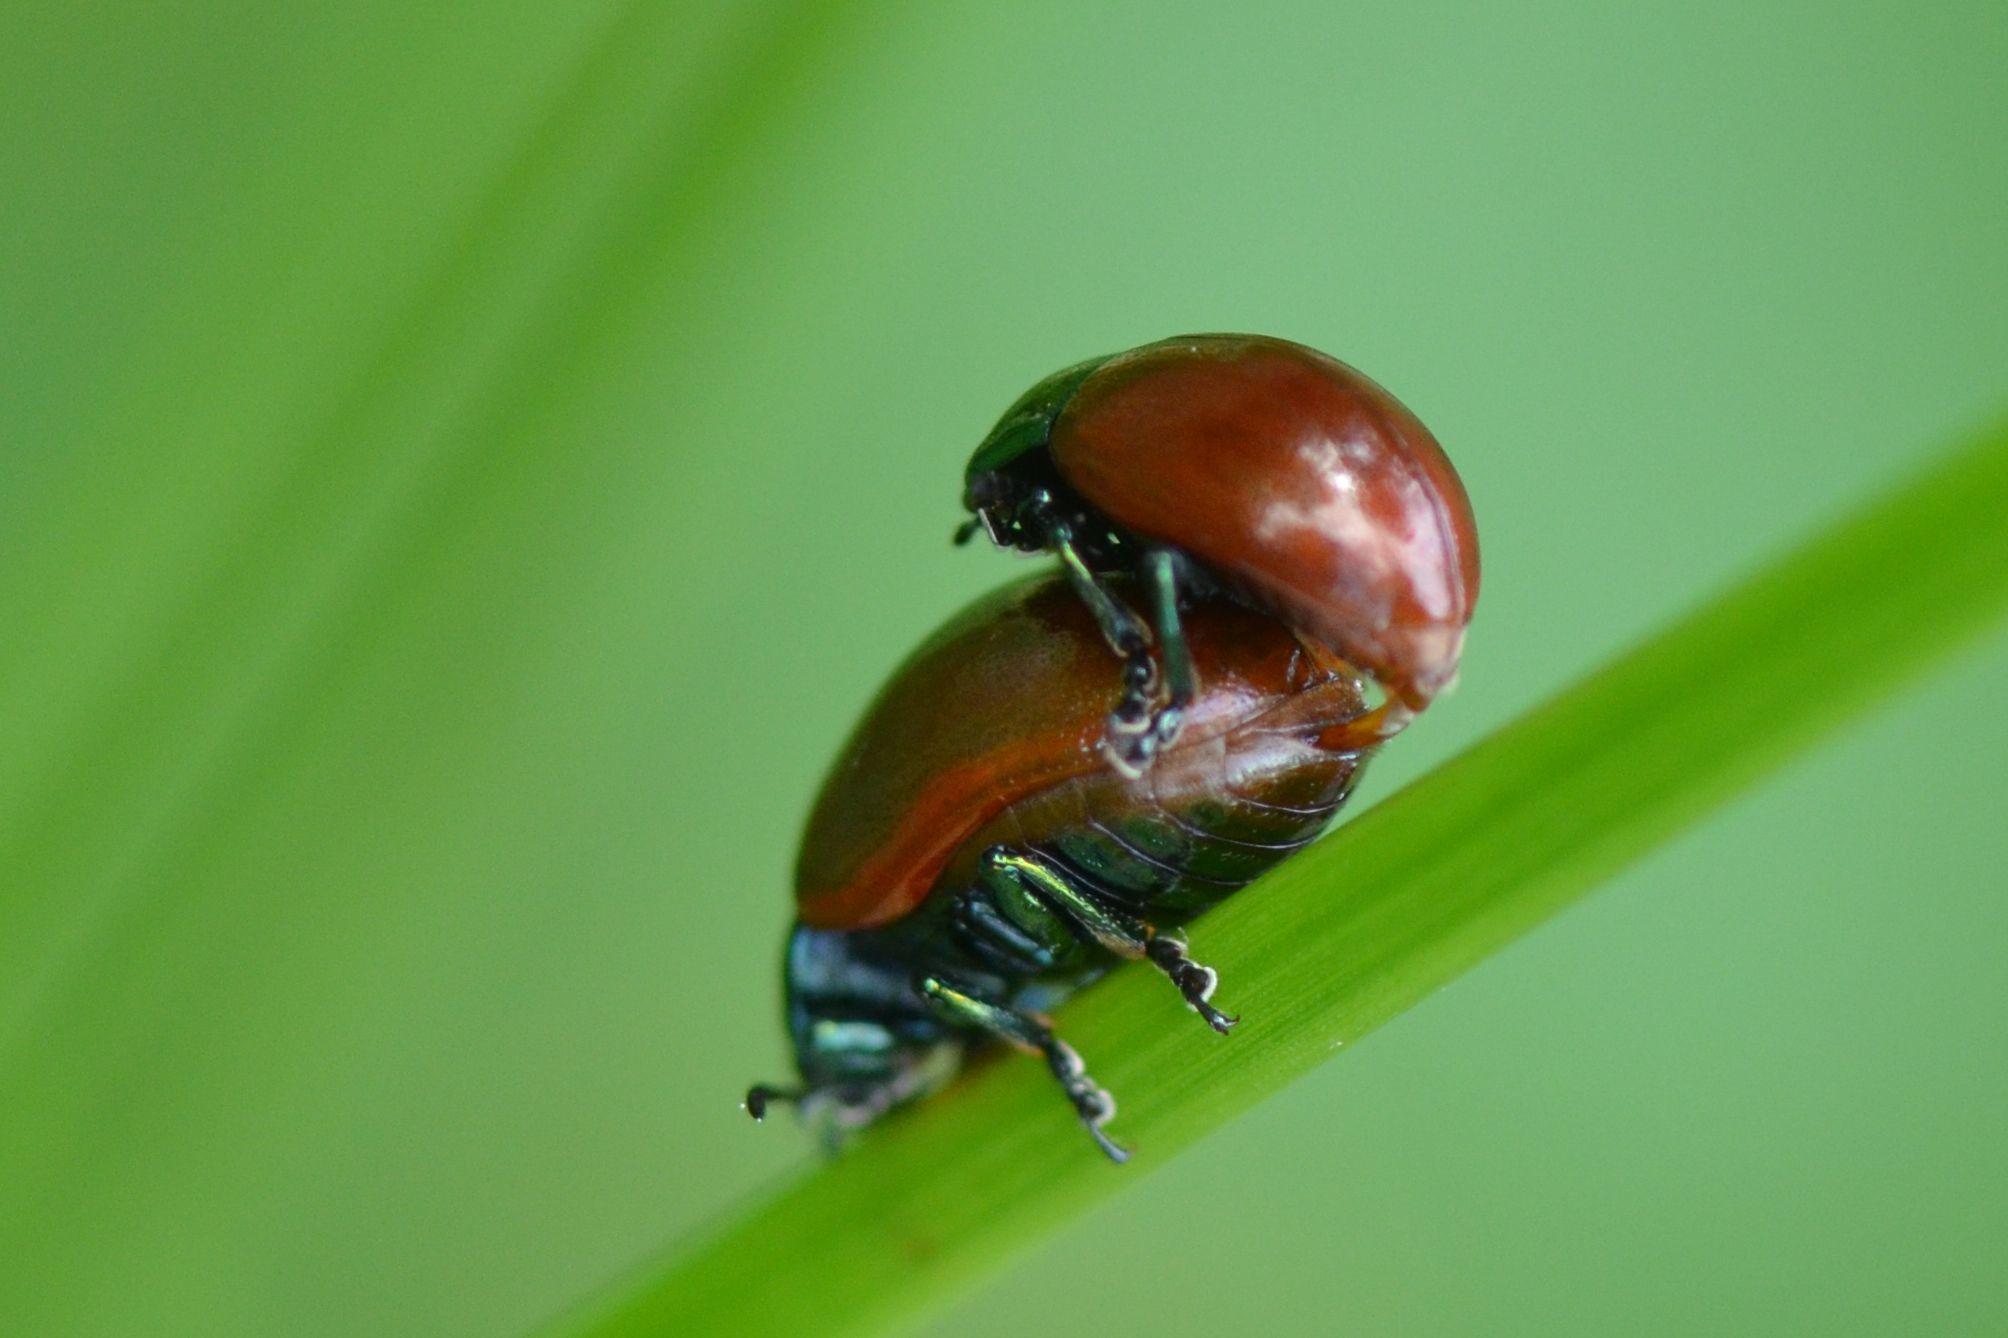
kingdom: Animalia
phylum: Arthropoda
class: Insecta
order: Coleoptera
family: Chrysomelidae
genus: Chrysomela
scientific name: Chrysomela polita
